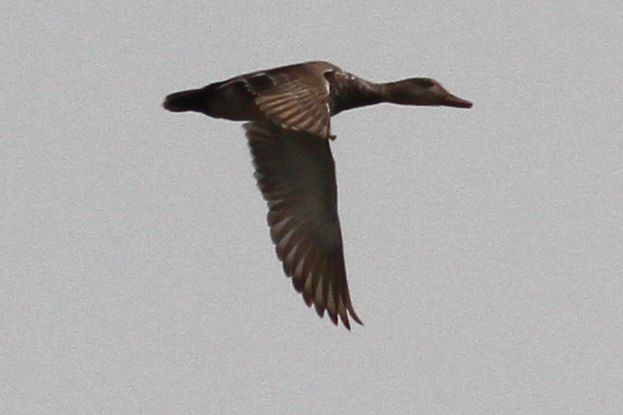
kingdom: Animalia
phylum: Chordata
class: Aves
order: Anseriformes
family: Anatidae
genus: Mareca
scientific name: Mareca strepera
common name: Gadwall
